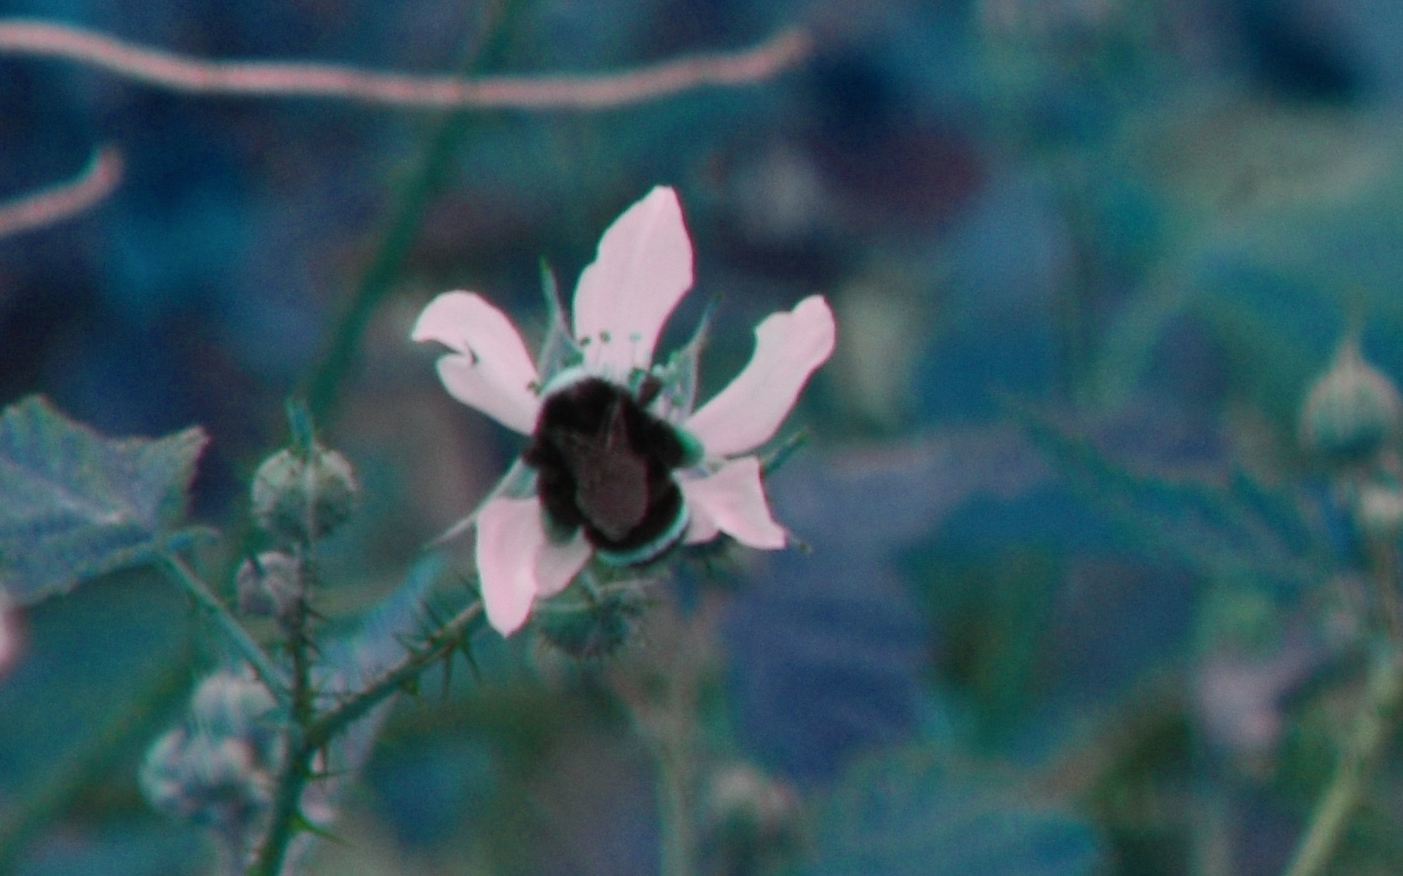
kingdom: Animalia
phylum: Arthropoda
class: Insecta
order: Hymenoptera
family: Apidae
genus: Pyrobombus
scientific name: Pyrobombus
